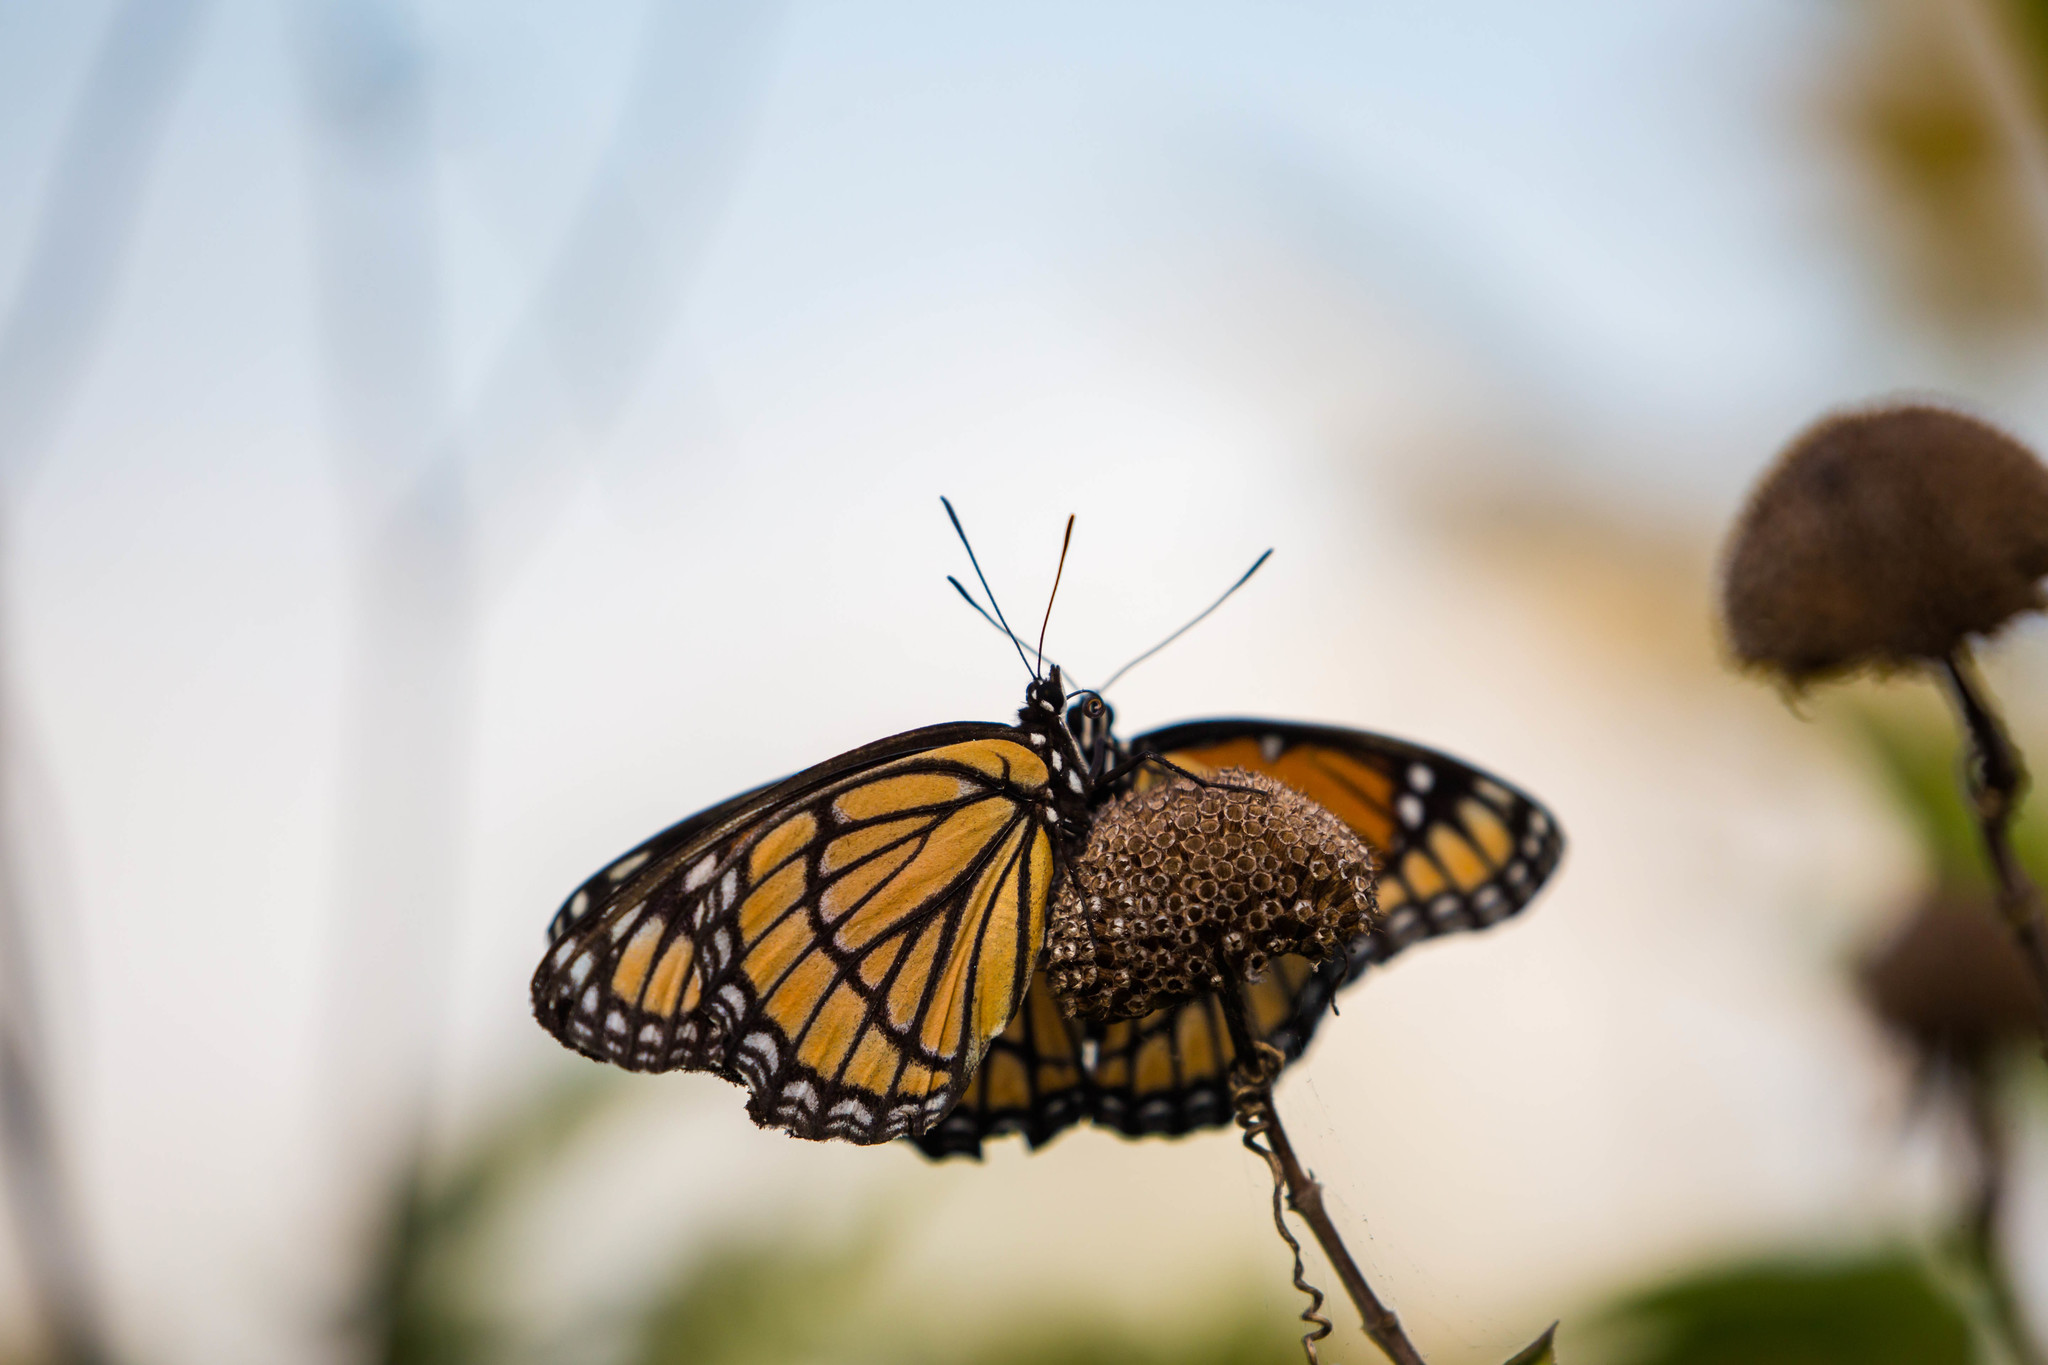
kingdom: Animalia
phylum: Arthropoda
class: Insecta
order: Lepidoptera
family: Nymphalidae
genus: Limenitis
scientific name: Limenitis archippus
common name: Viceroy
